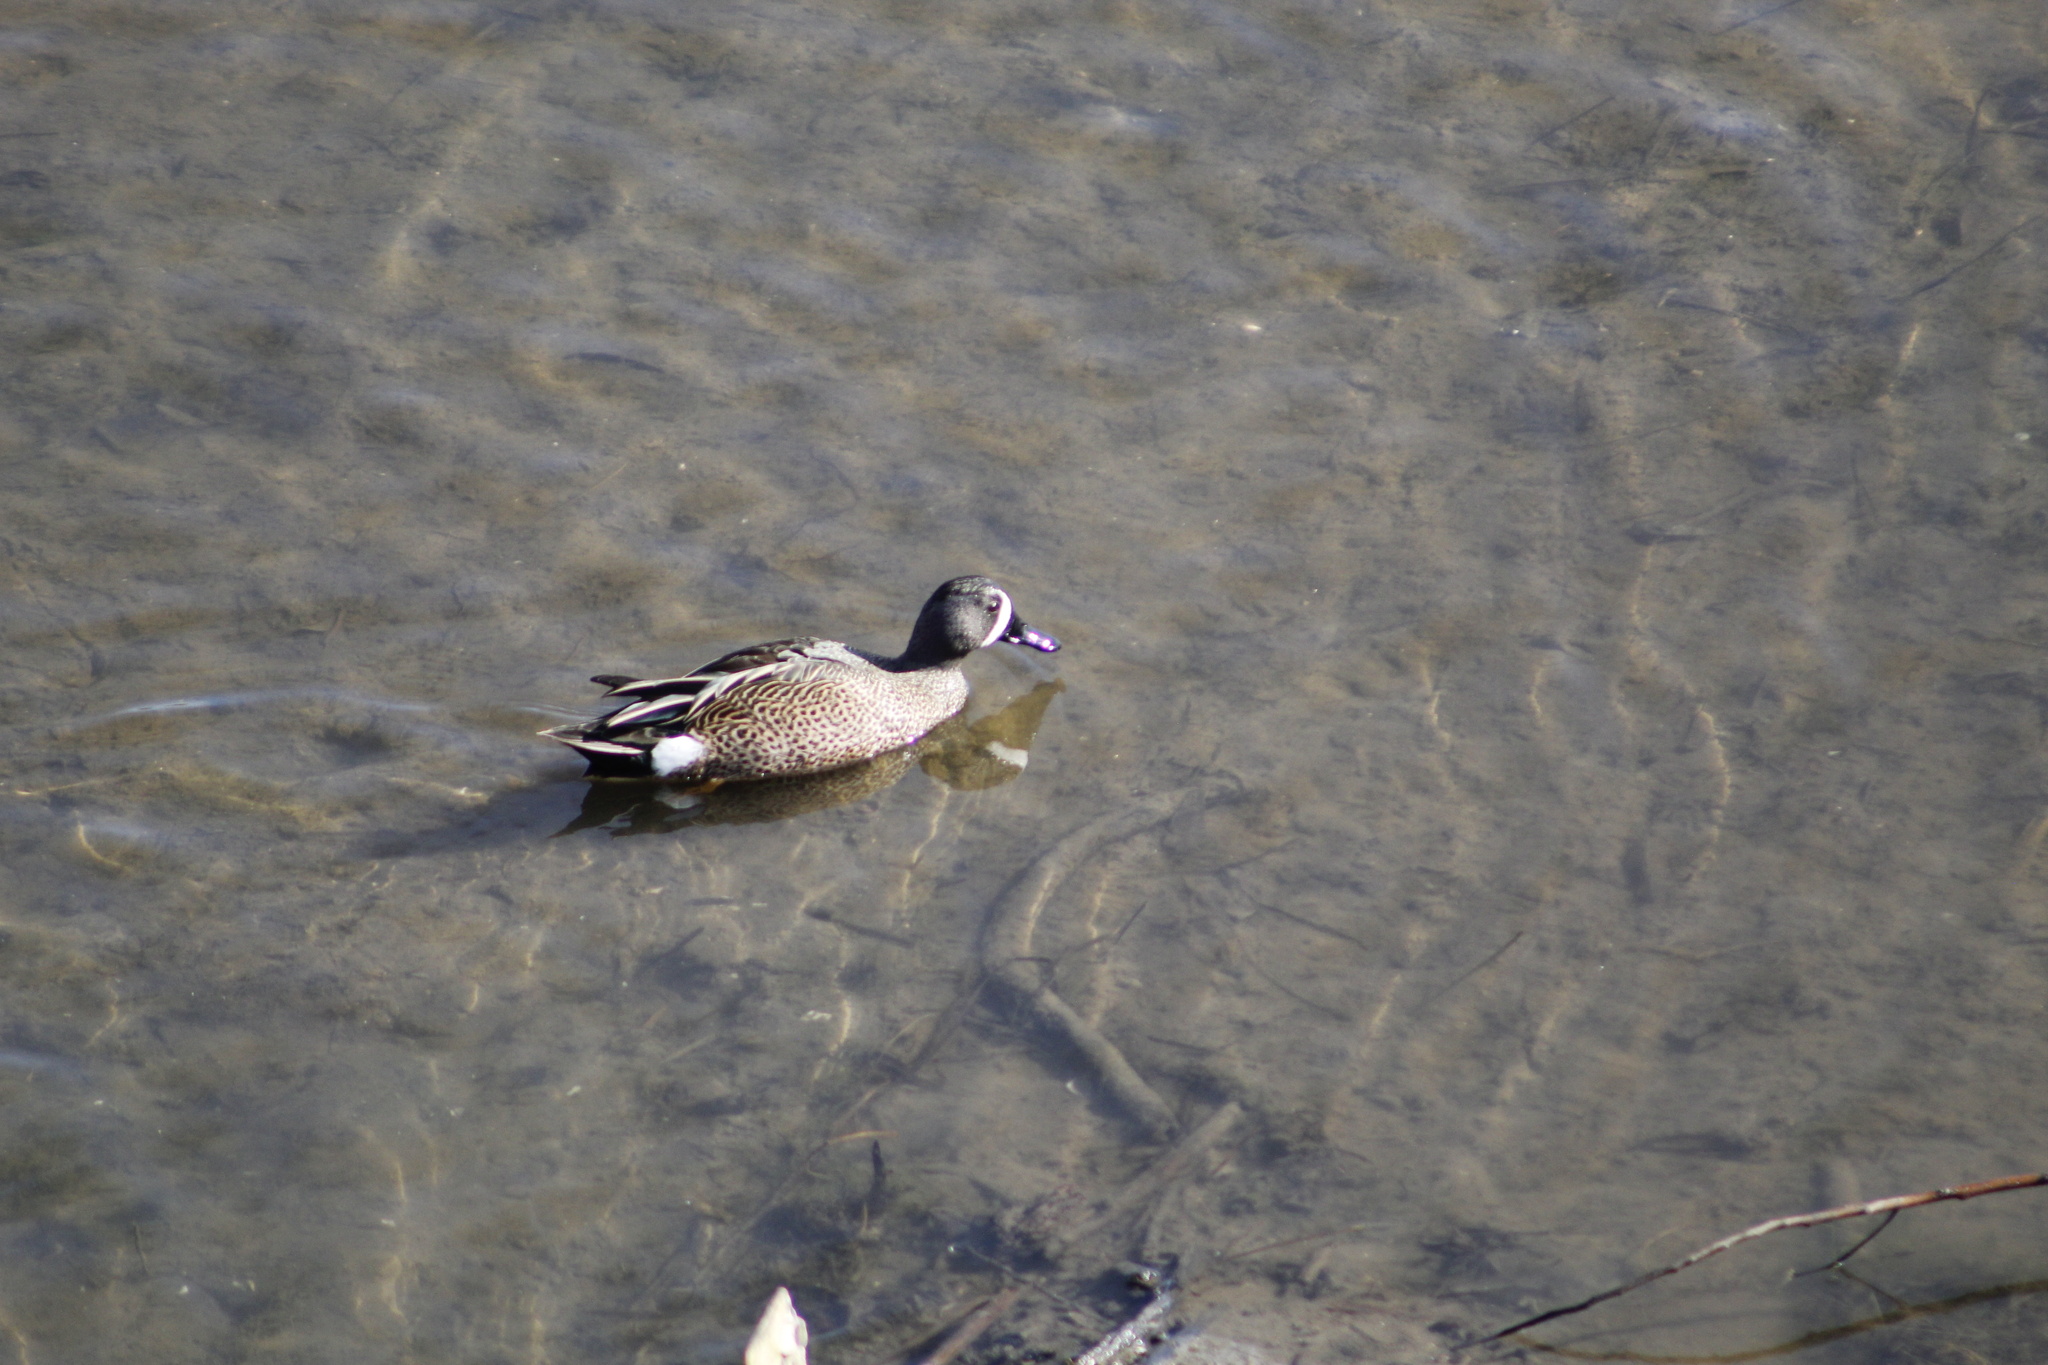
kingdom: Animalia
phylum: Chordata
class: Aves
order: Anseriformes
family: Anatidae
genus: Spatula
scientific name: Spatula discors
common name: Blue-winged teal
